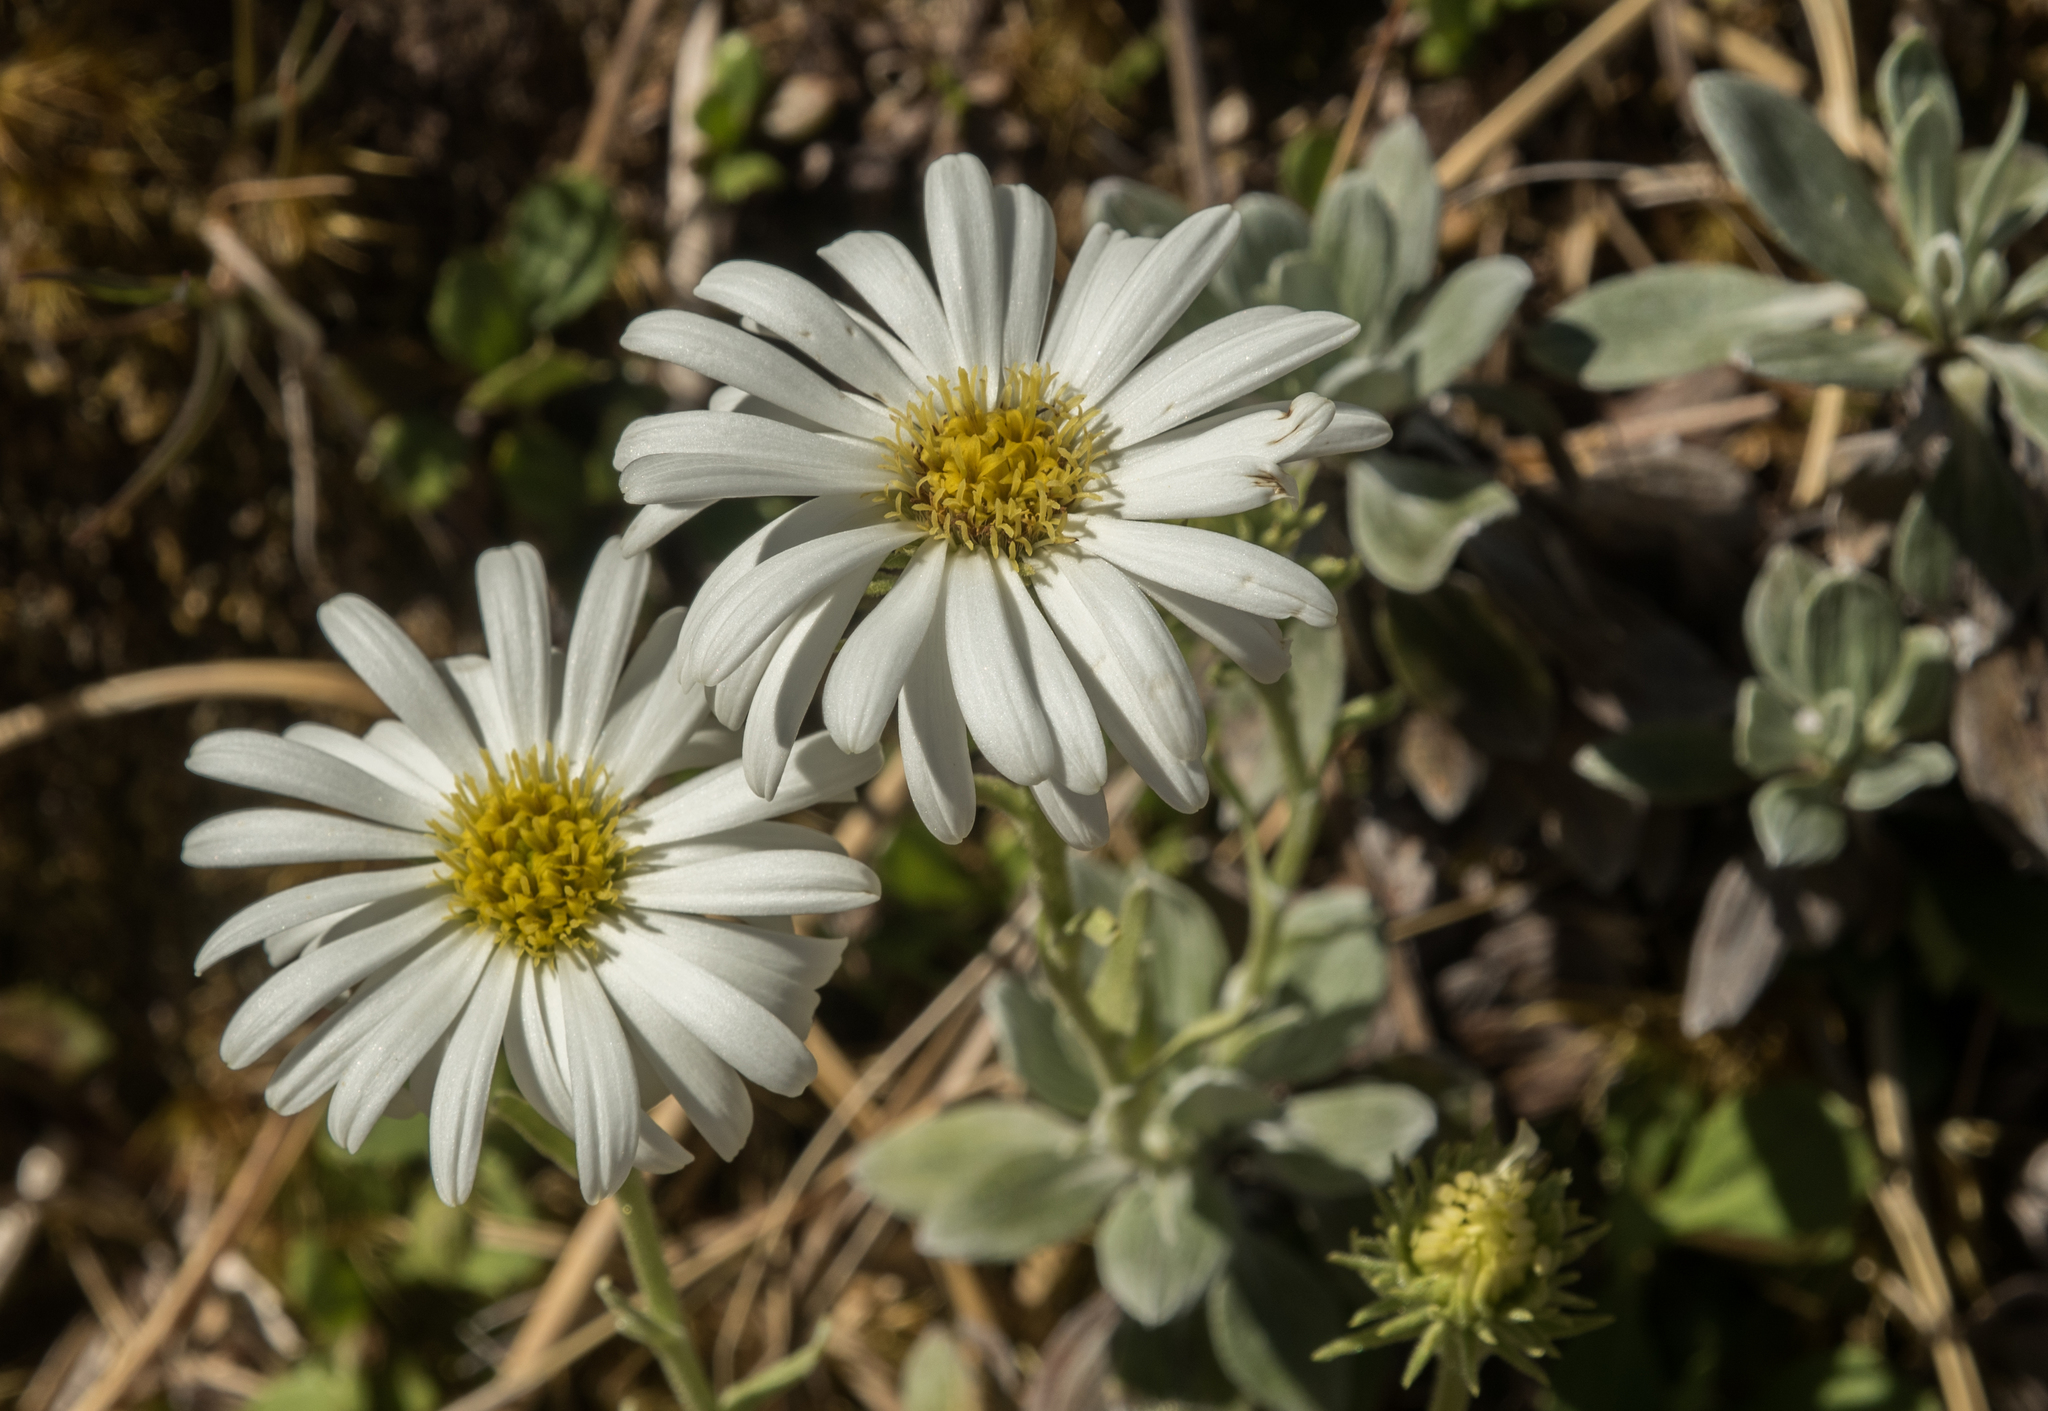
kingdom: Plantae
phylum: Tracheophyta
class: Magnoliopsida
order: Asterales
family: Asteraceae
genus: Celmisia
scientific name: Celmisia discolor
